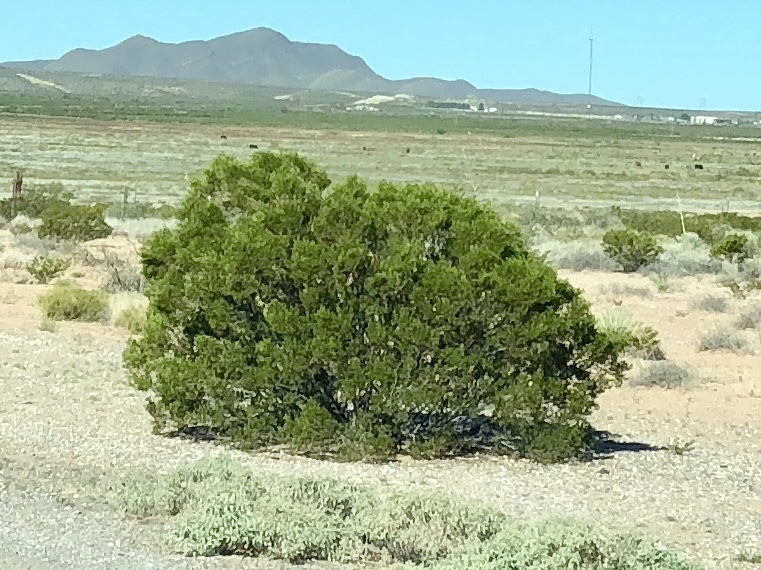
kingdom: Plantae
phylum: Tracheophyta
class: Magnoliopsida
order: Zygophyllales
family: Zygophyllaceae
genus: Larrea
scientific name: Larrea tridentata
